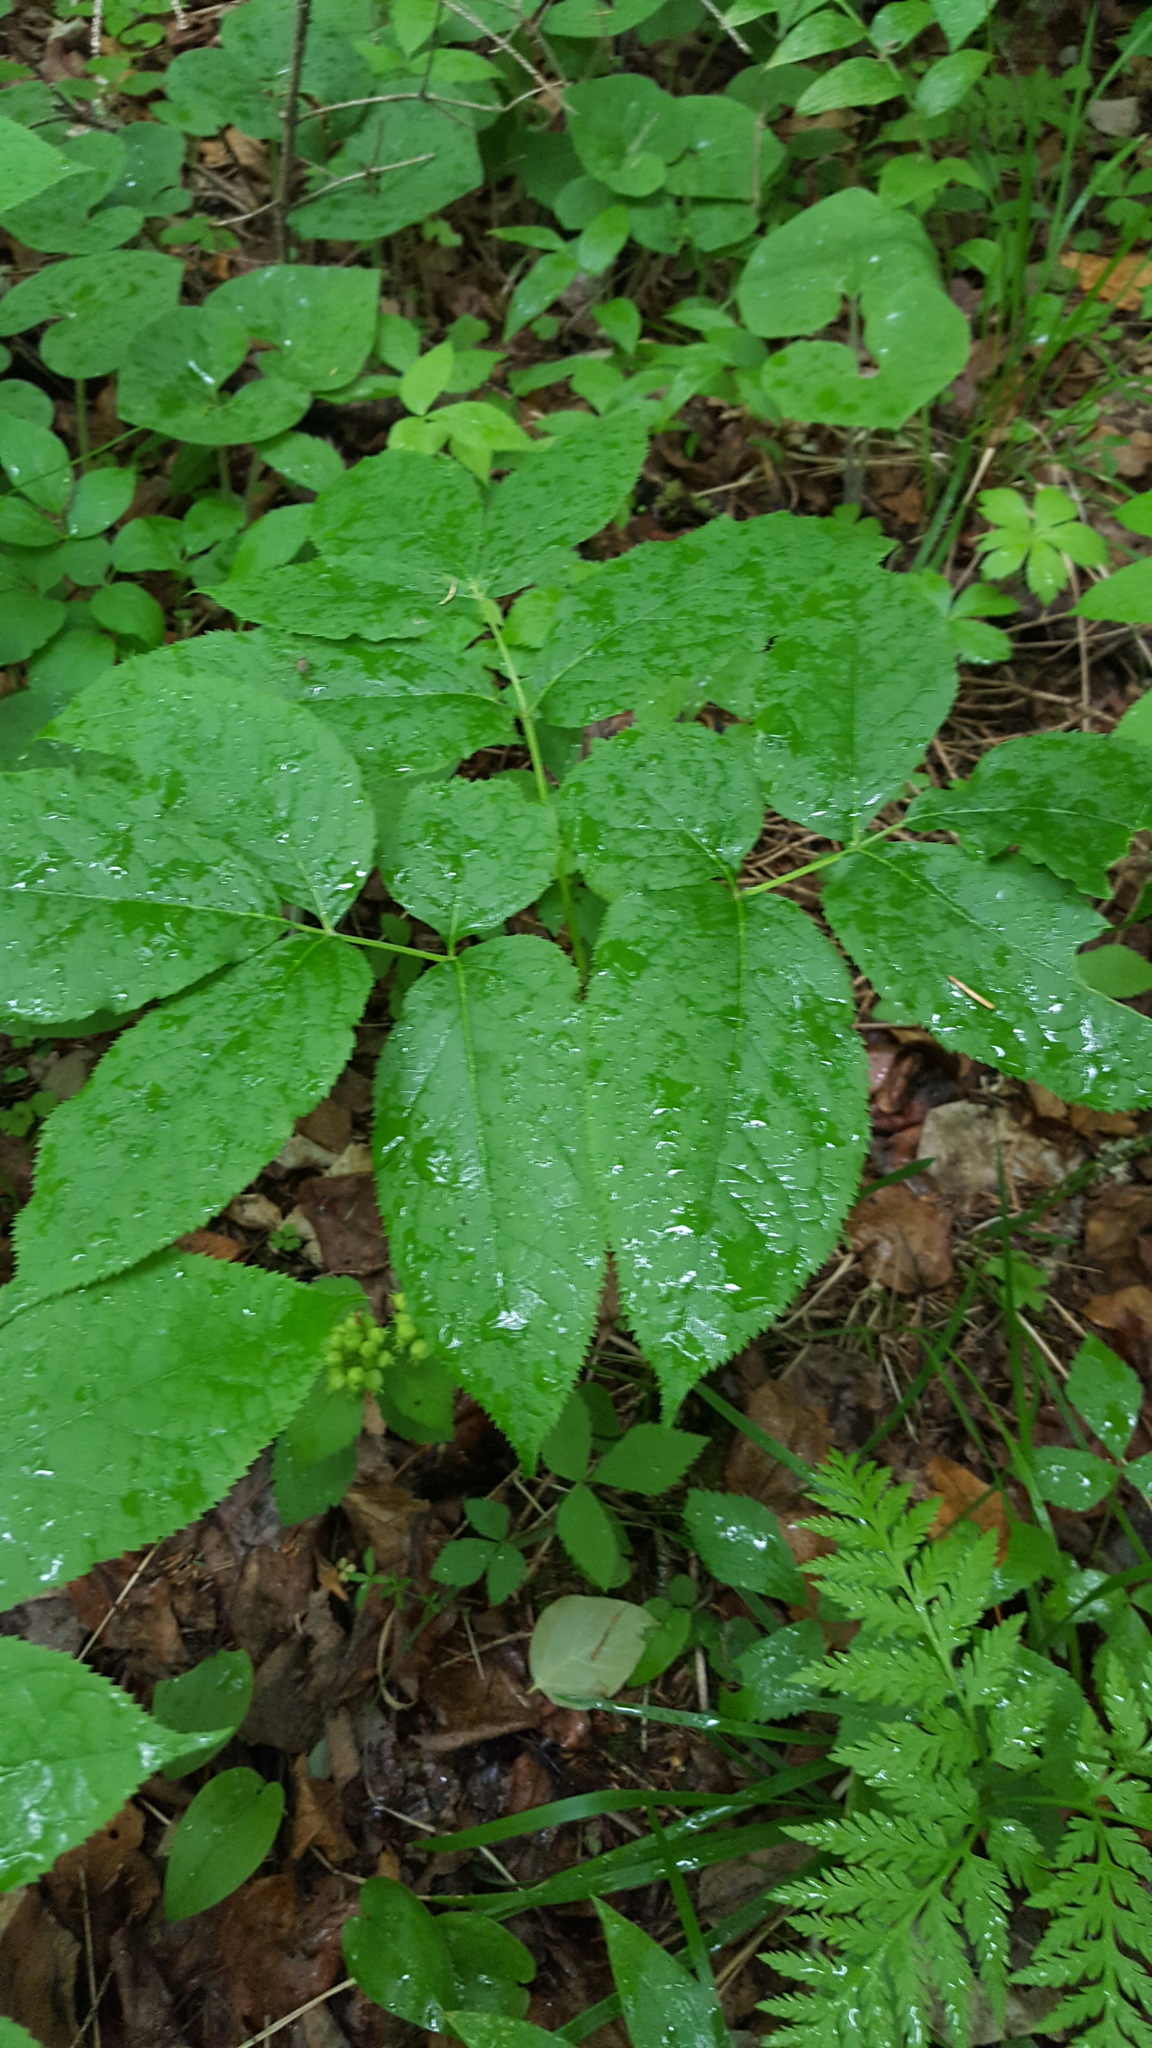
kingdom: Plantae
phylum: Tracheophyta
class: Magnoliopsida
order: Apiales
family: Araliaceae
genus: Aralia
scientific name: Aralia nudicaulis
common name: Wild sarsaparilla
